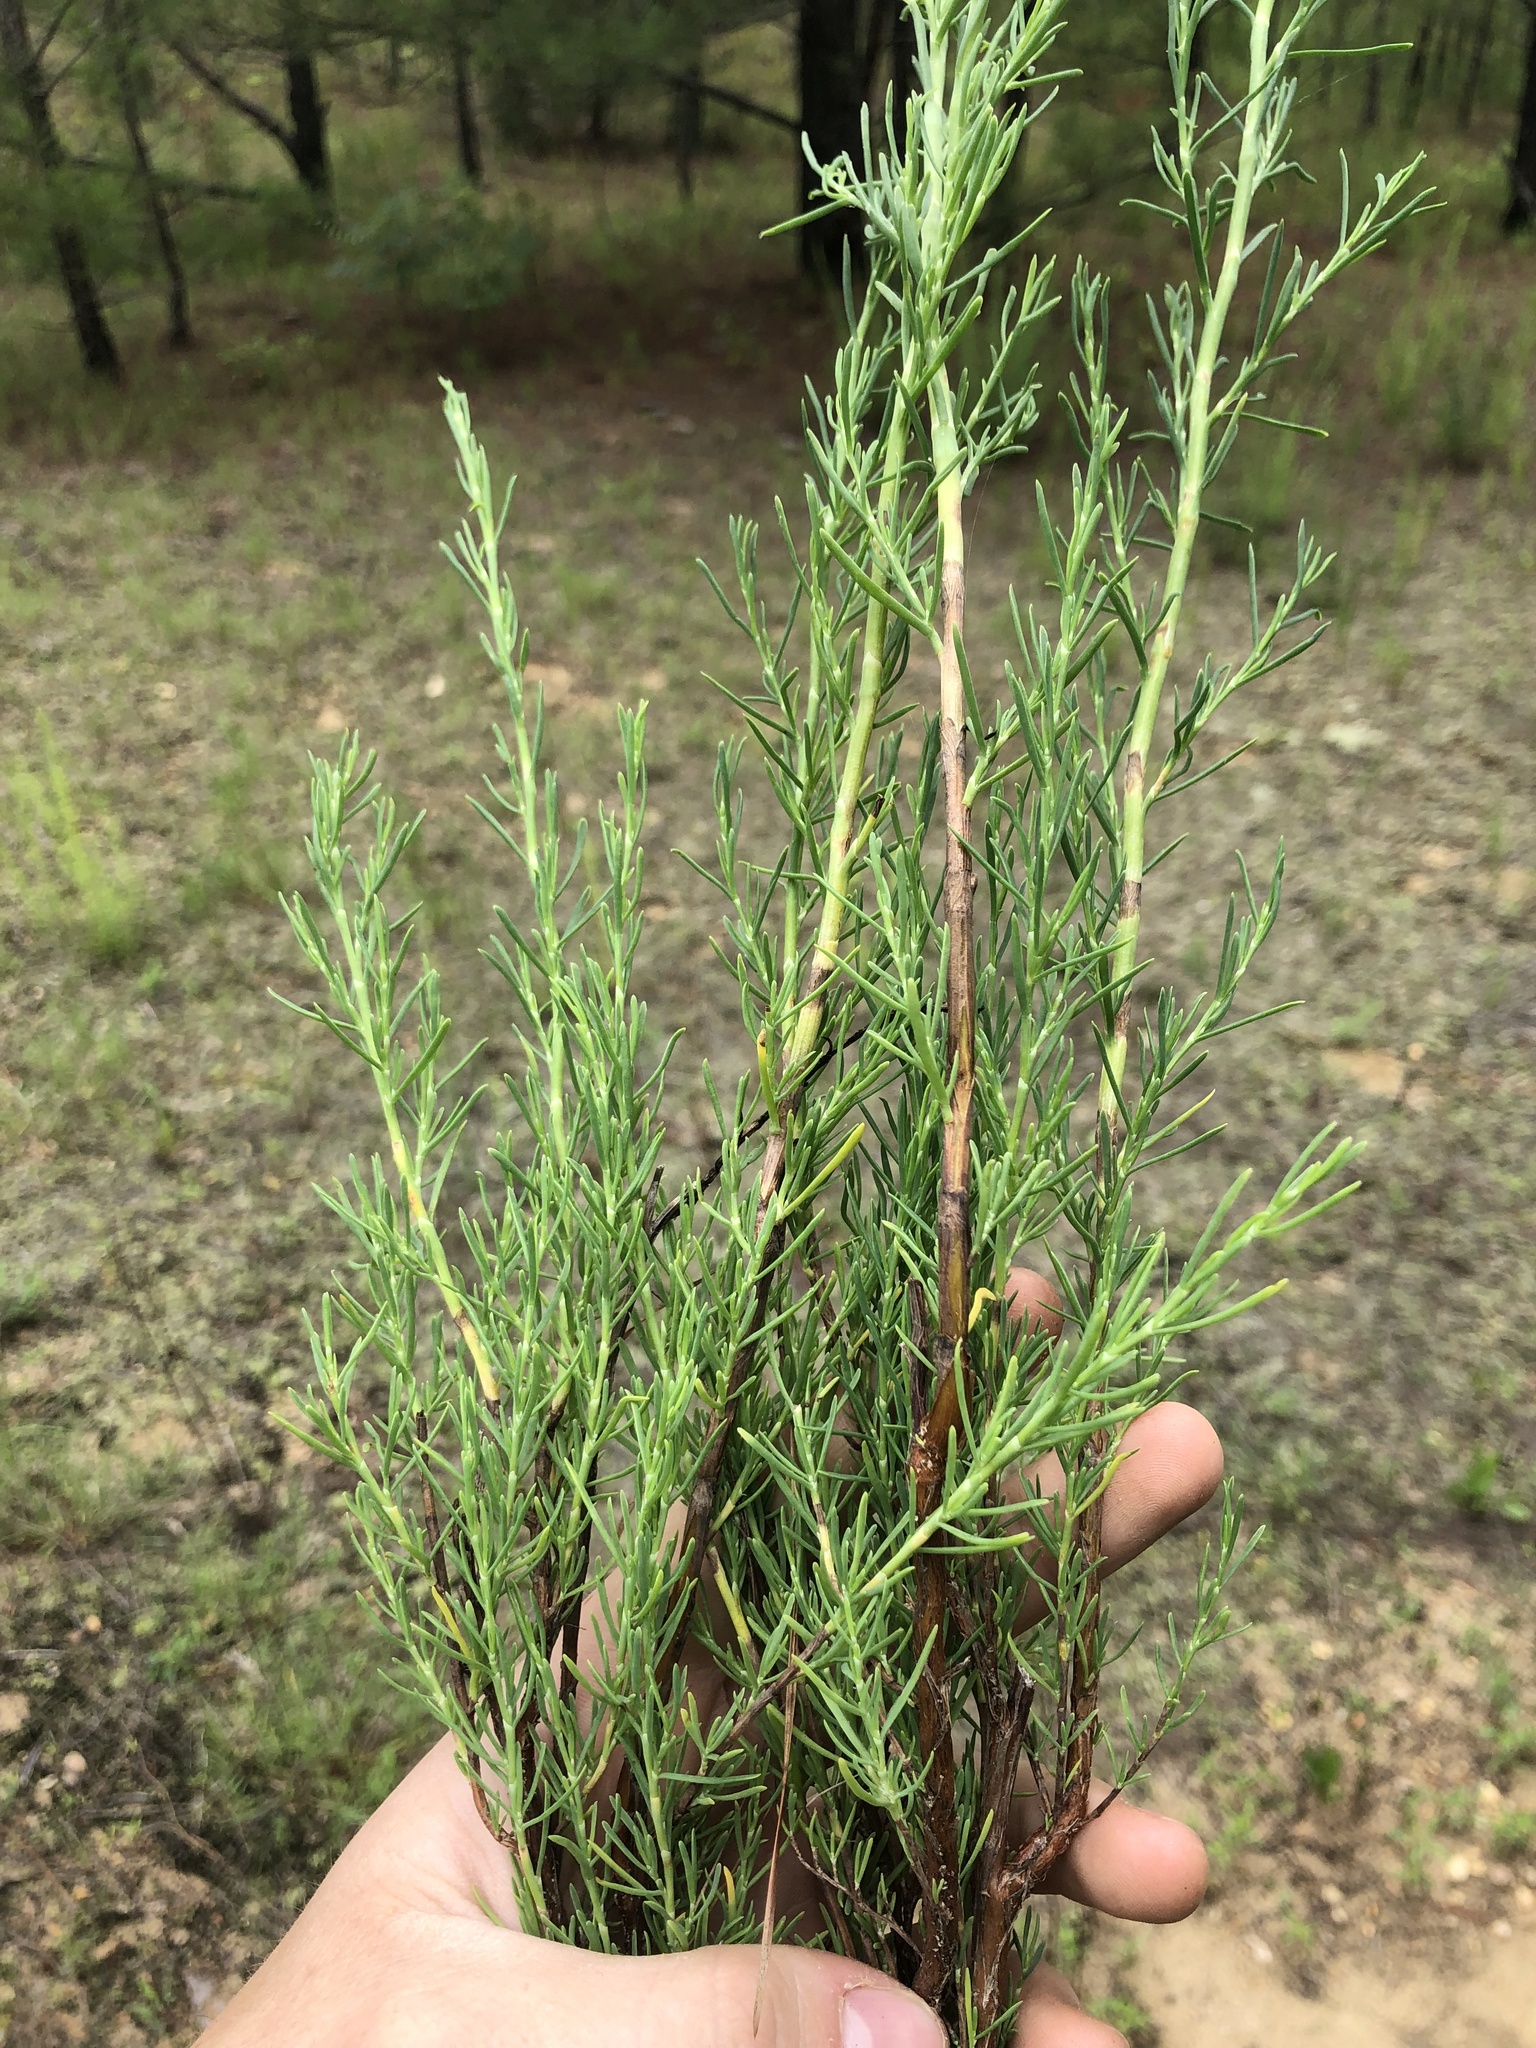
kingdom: Plantae
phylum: Tracheophyta
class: Magnoliopsida
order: Caryophyllales
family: Polygonaceae
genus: Polygonella
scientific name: Polygonella americana
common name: Southern jointweed
